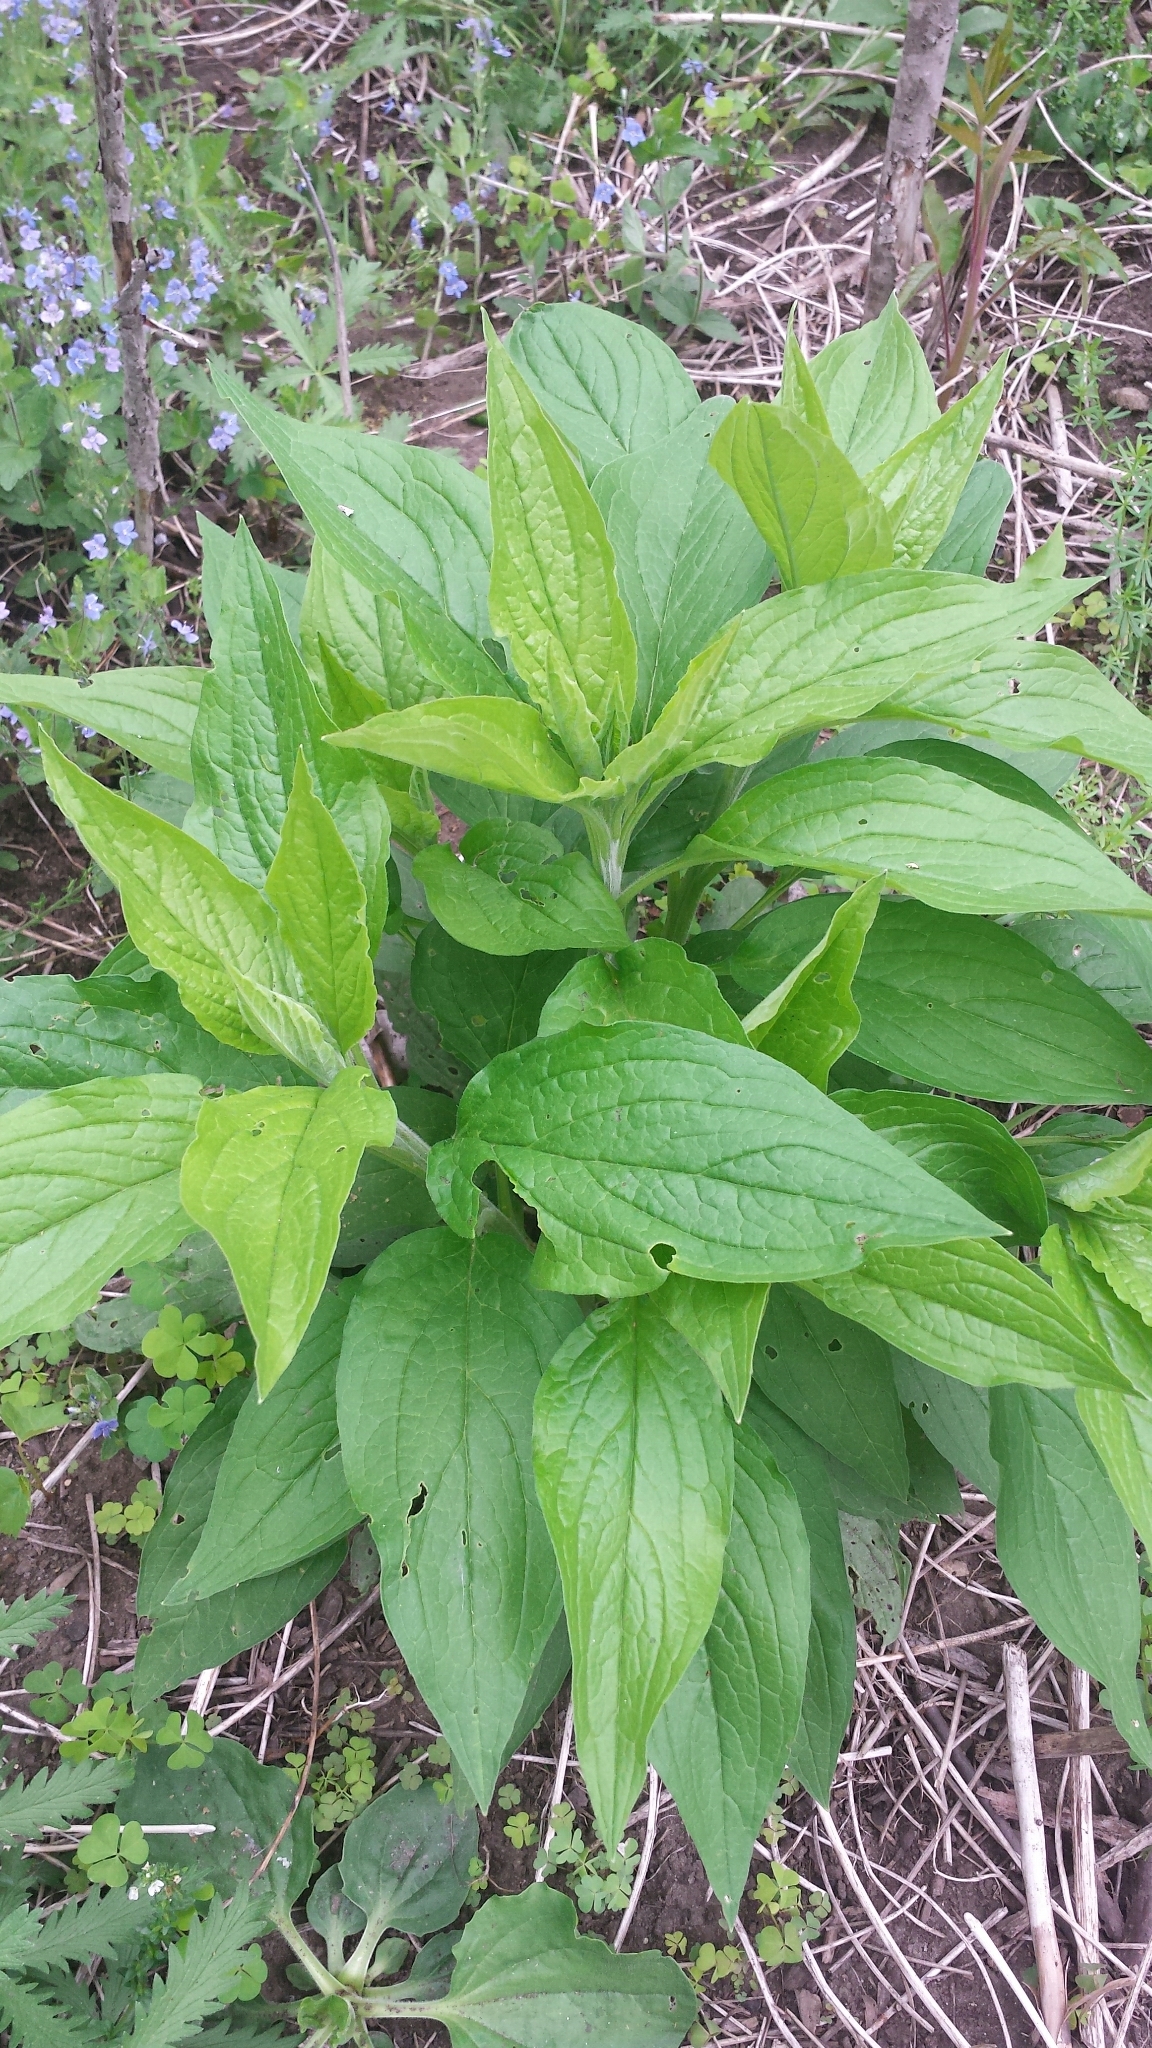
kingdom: Plantae
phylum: Tracheophyta
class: Magnoliopsida
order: Boraginales
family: Boraginaceae
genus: Hackelia
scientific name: Hackelia virginiana
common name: Beggar's-lice
